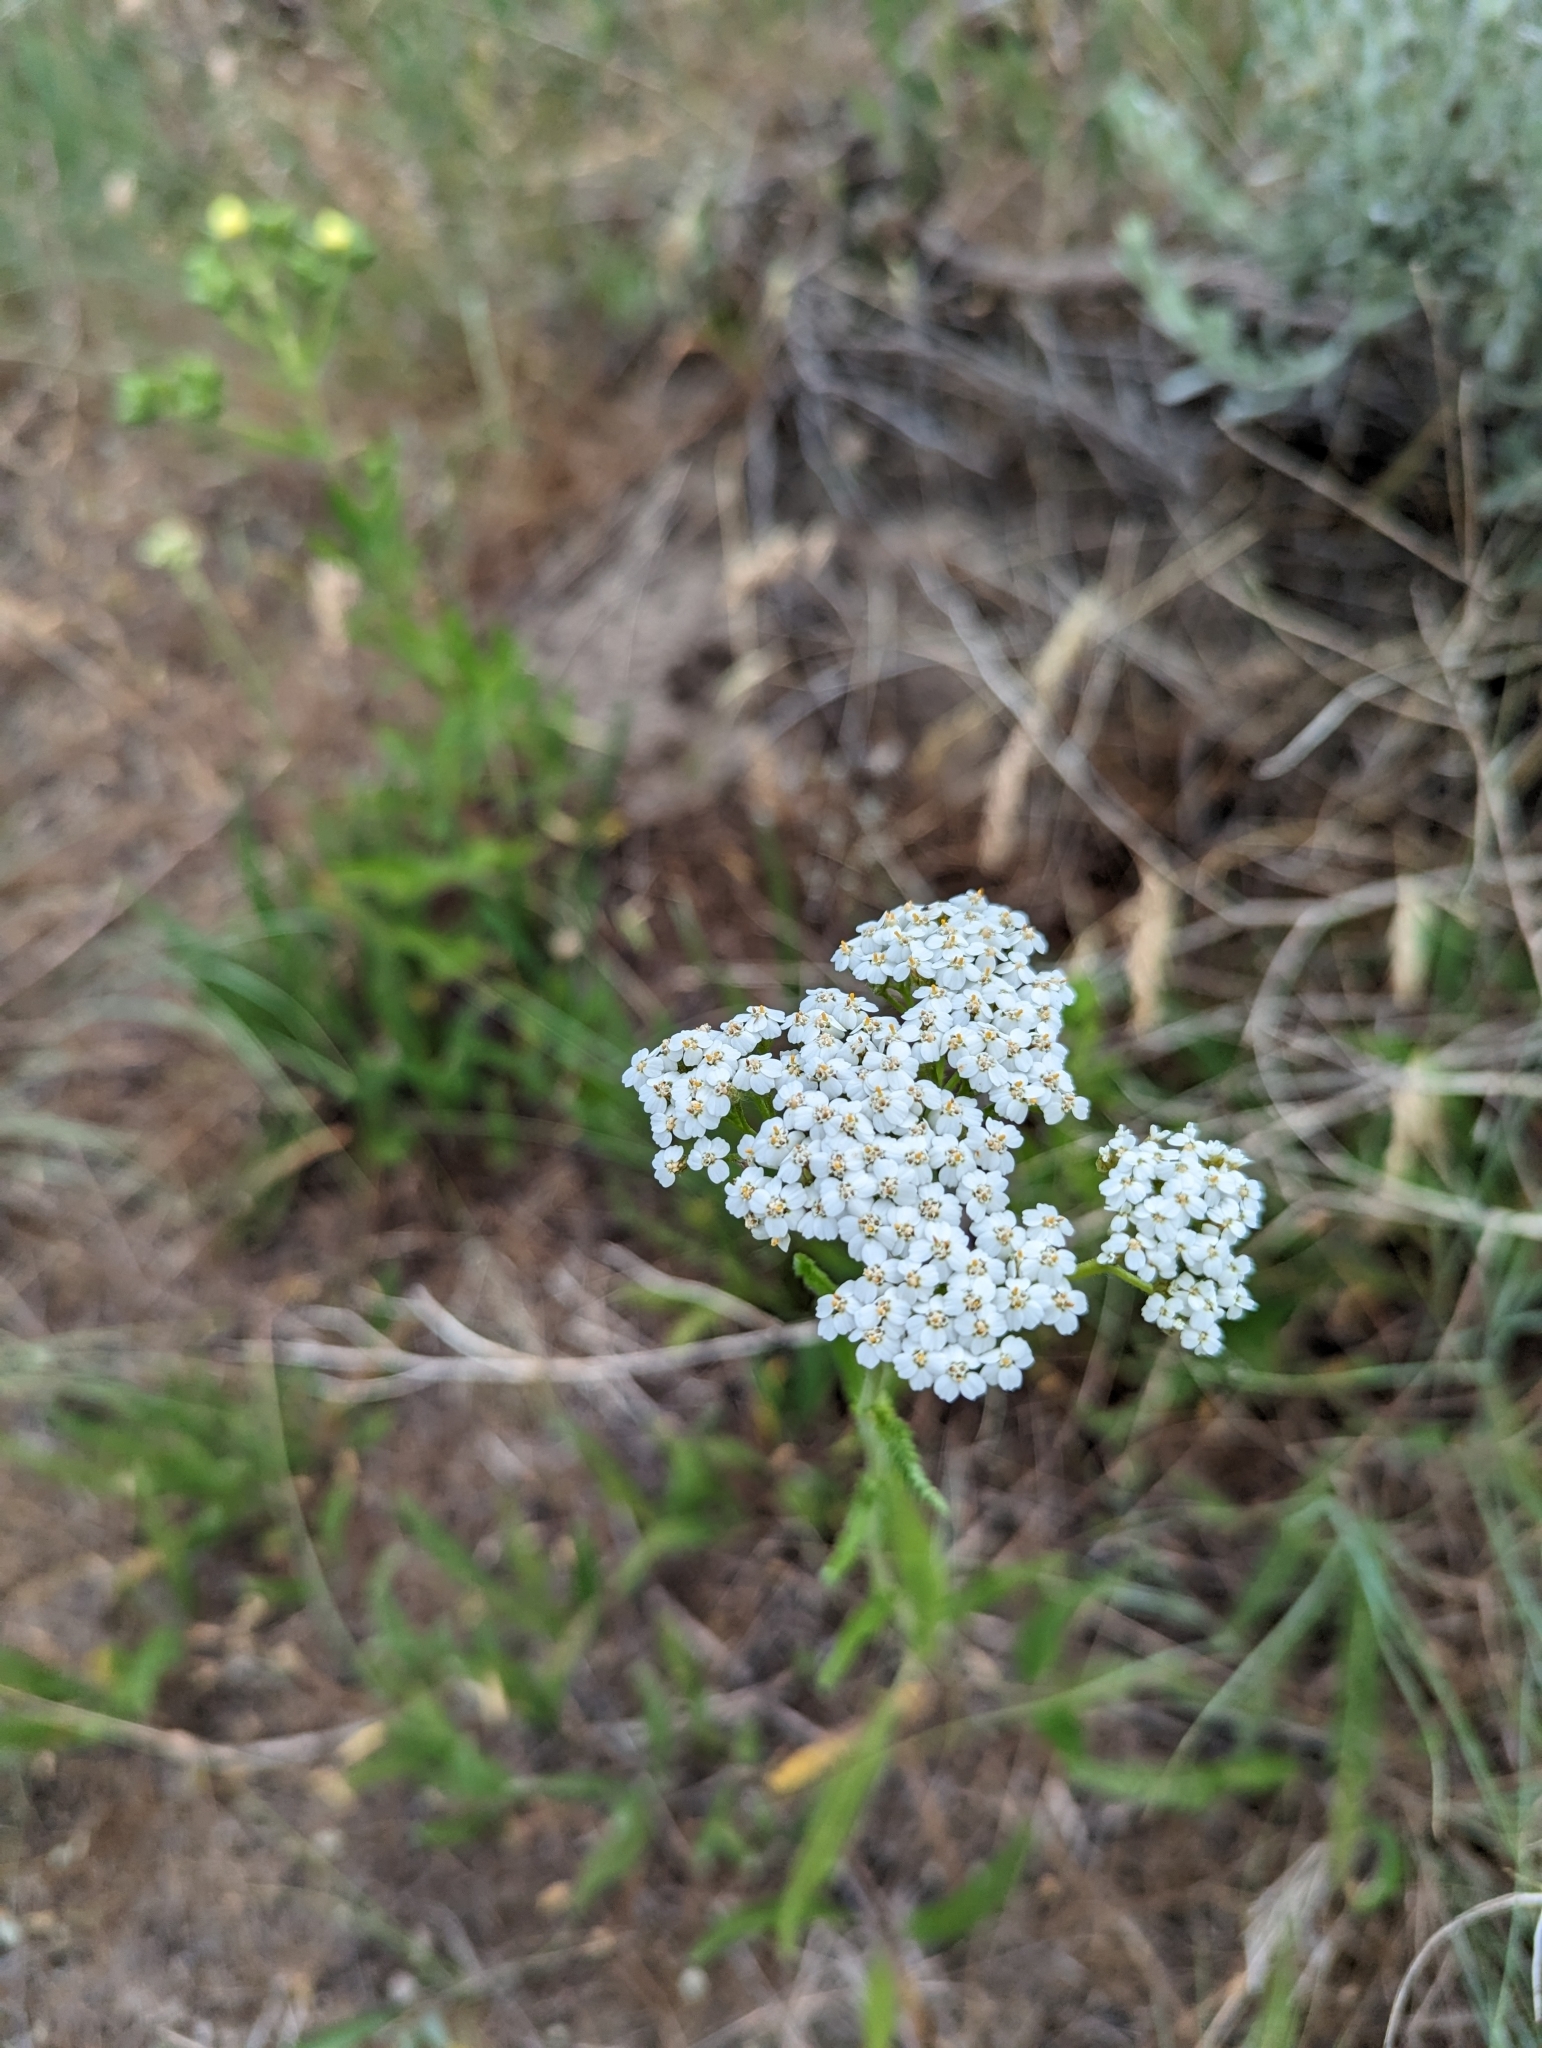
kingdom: Plantae
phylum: Tracheophyta
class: Magnoliopsida
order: Asterales
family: Asteraceae
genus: Achillea
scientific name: Achillea millefolium
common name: Yarrow
